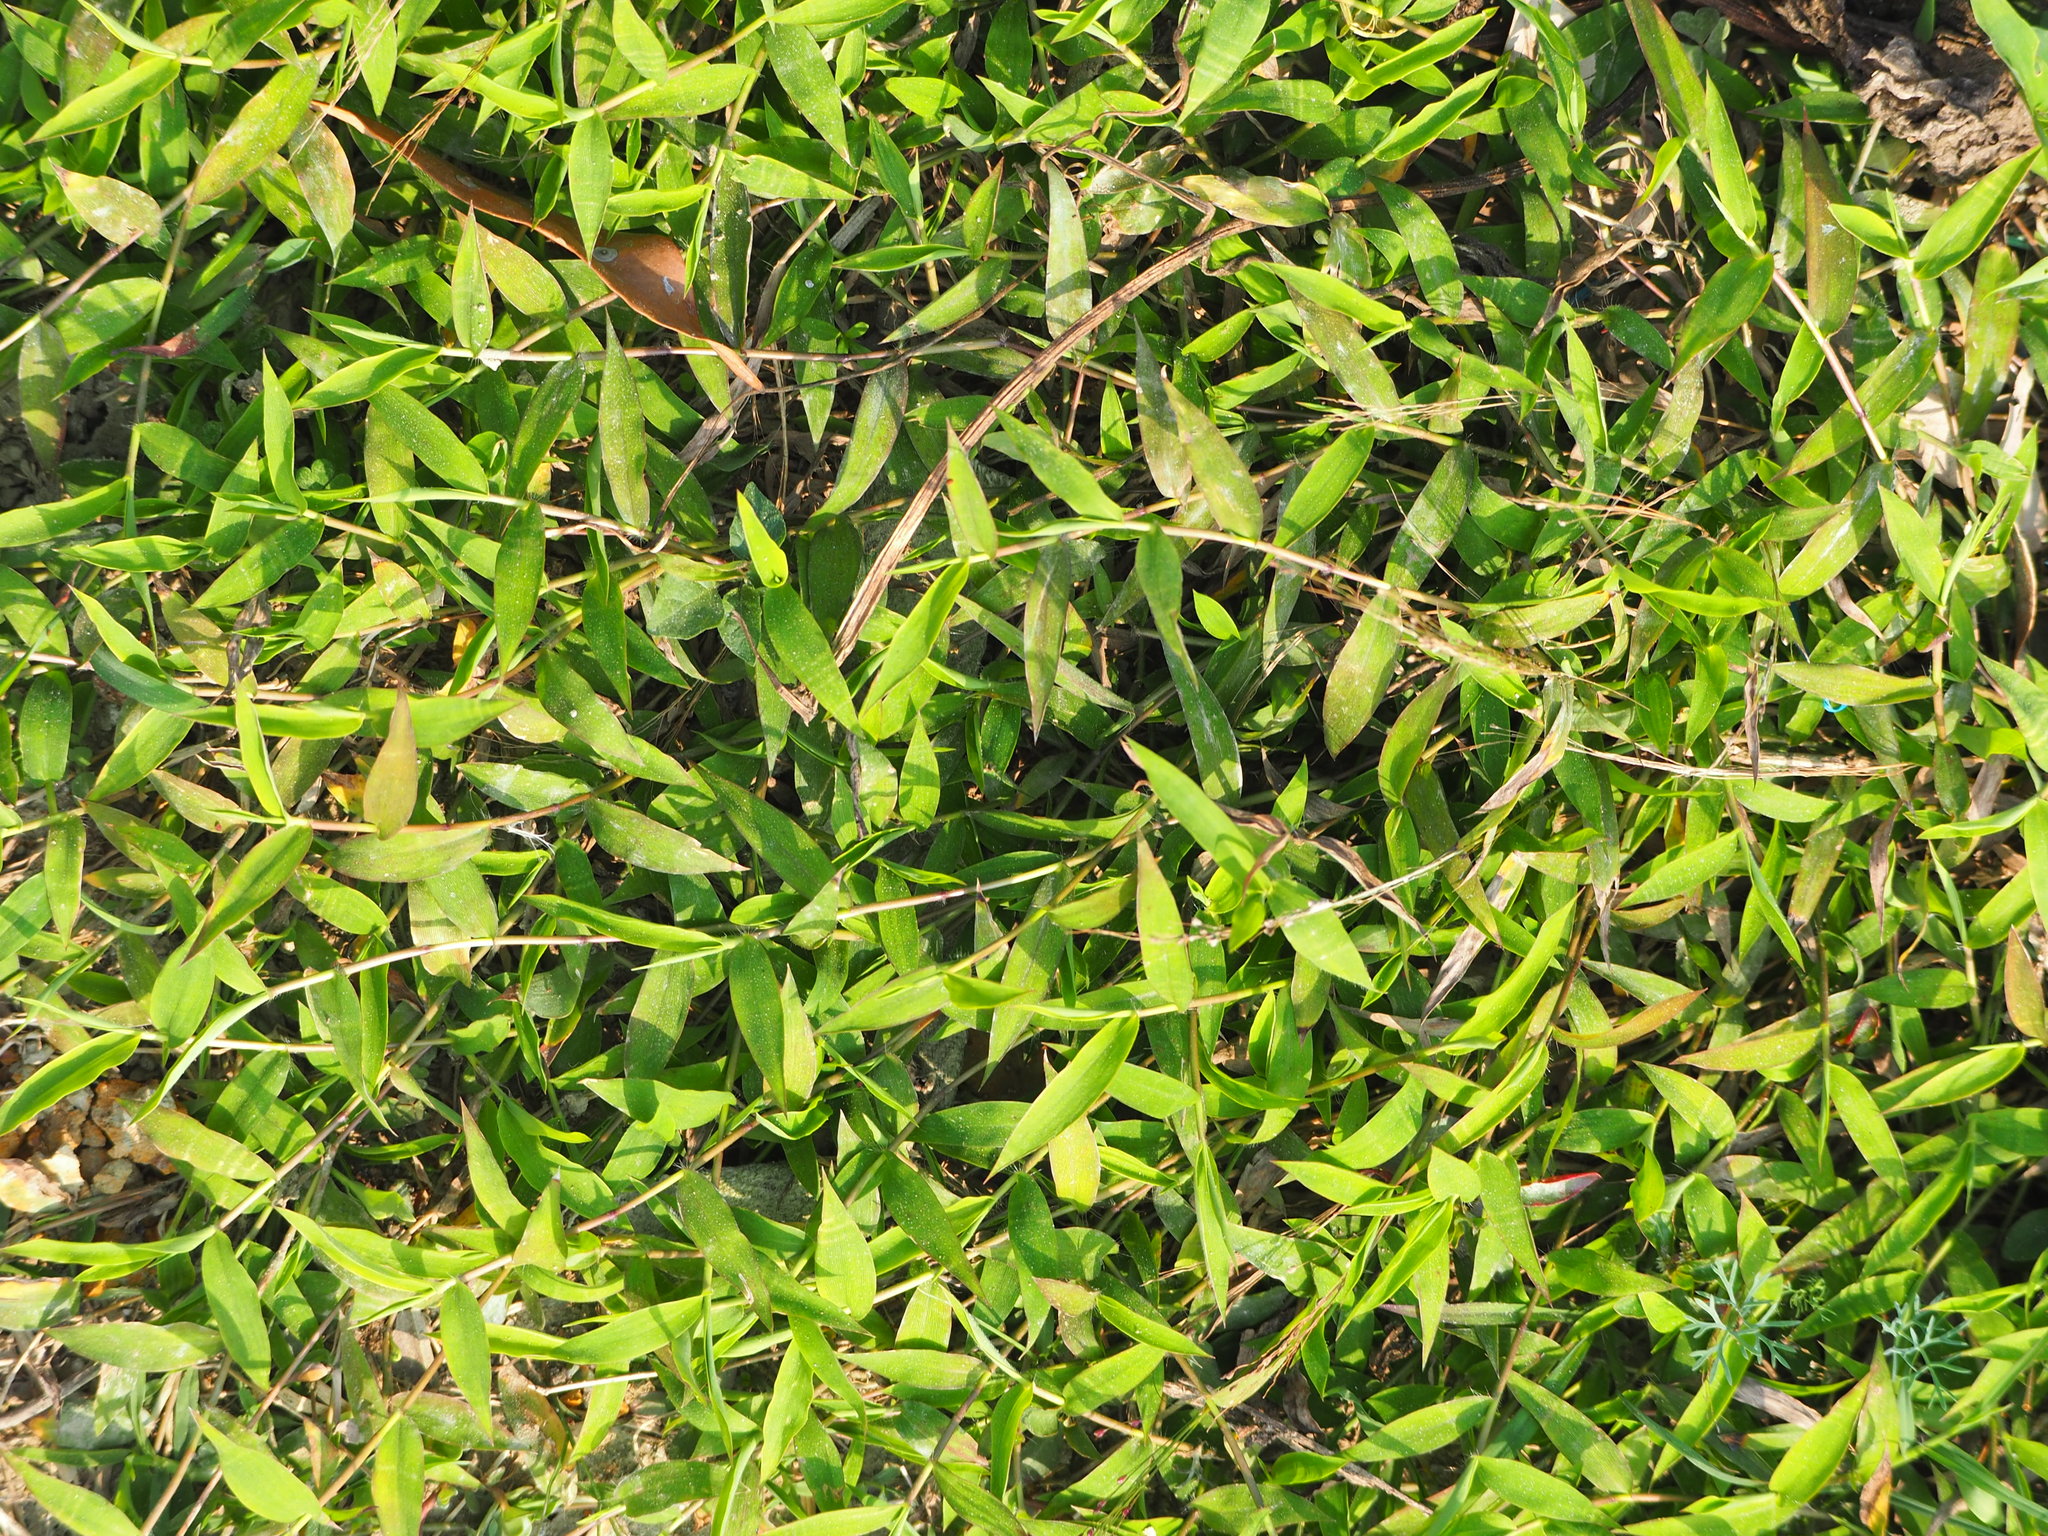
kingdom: Plantae
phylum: Tracheophyta
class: Liliopsida
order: Poales
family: Poaceae
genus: Cyrtococcum
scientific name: Cyrtococcum patens
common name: Broad-leaved bowgrass
